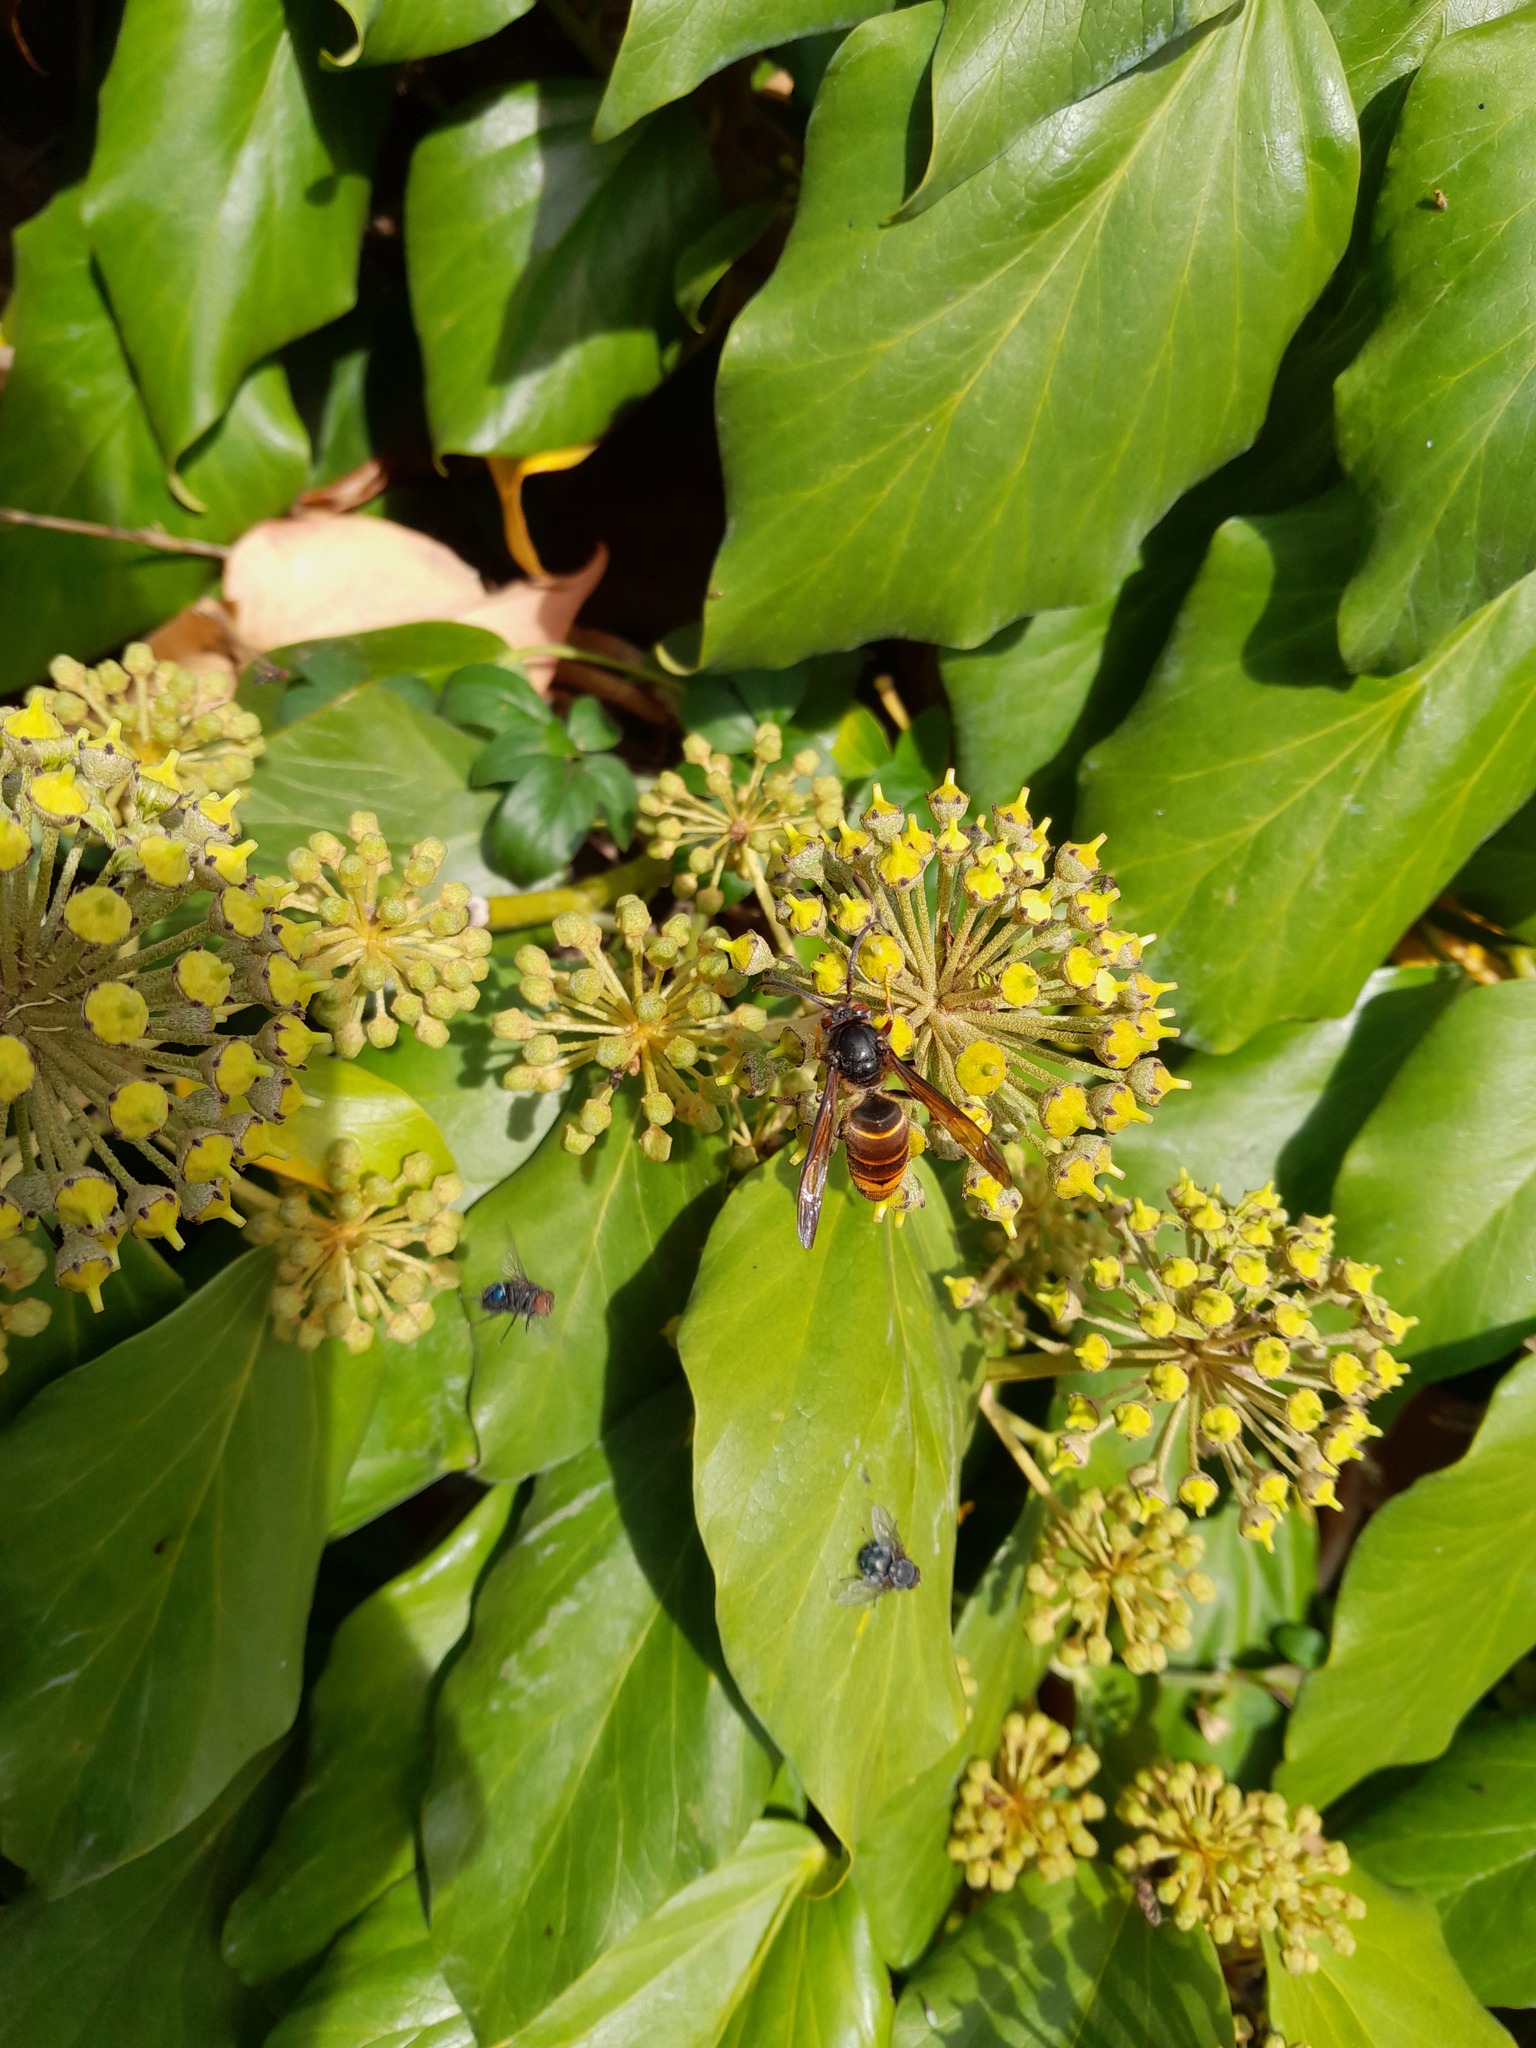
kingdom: Animalia
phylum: Arthropoda
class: Insecta
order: Hymenoptera
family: Vespidae
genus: Vespa
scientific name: Vespa velutina
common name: Asian hornet
